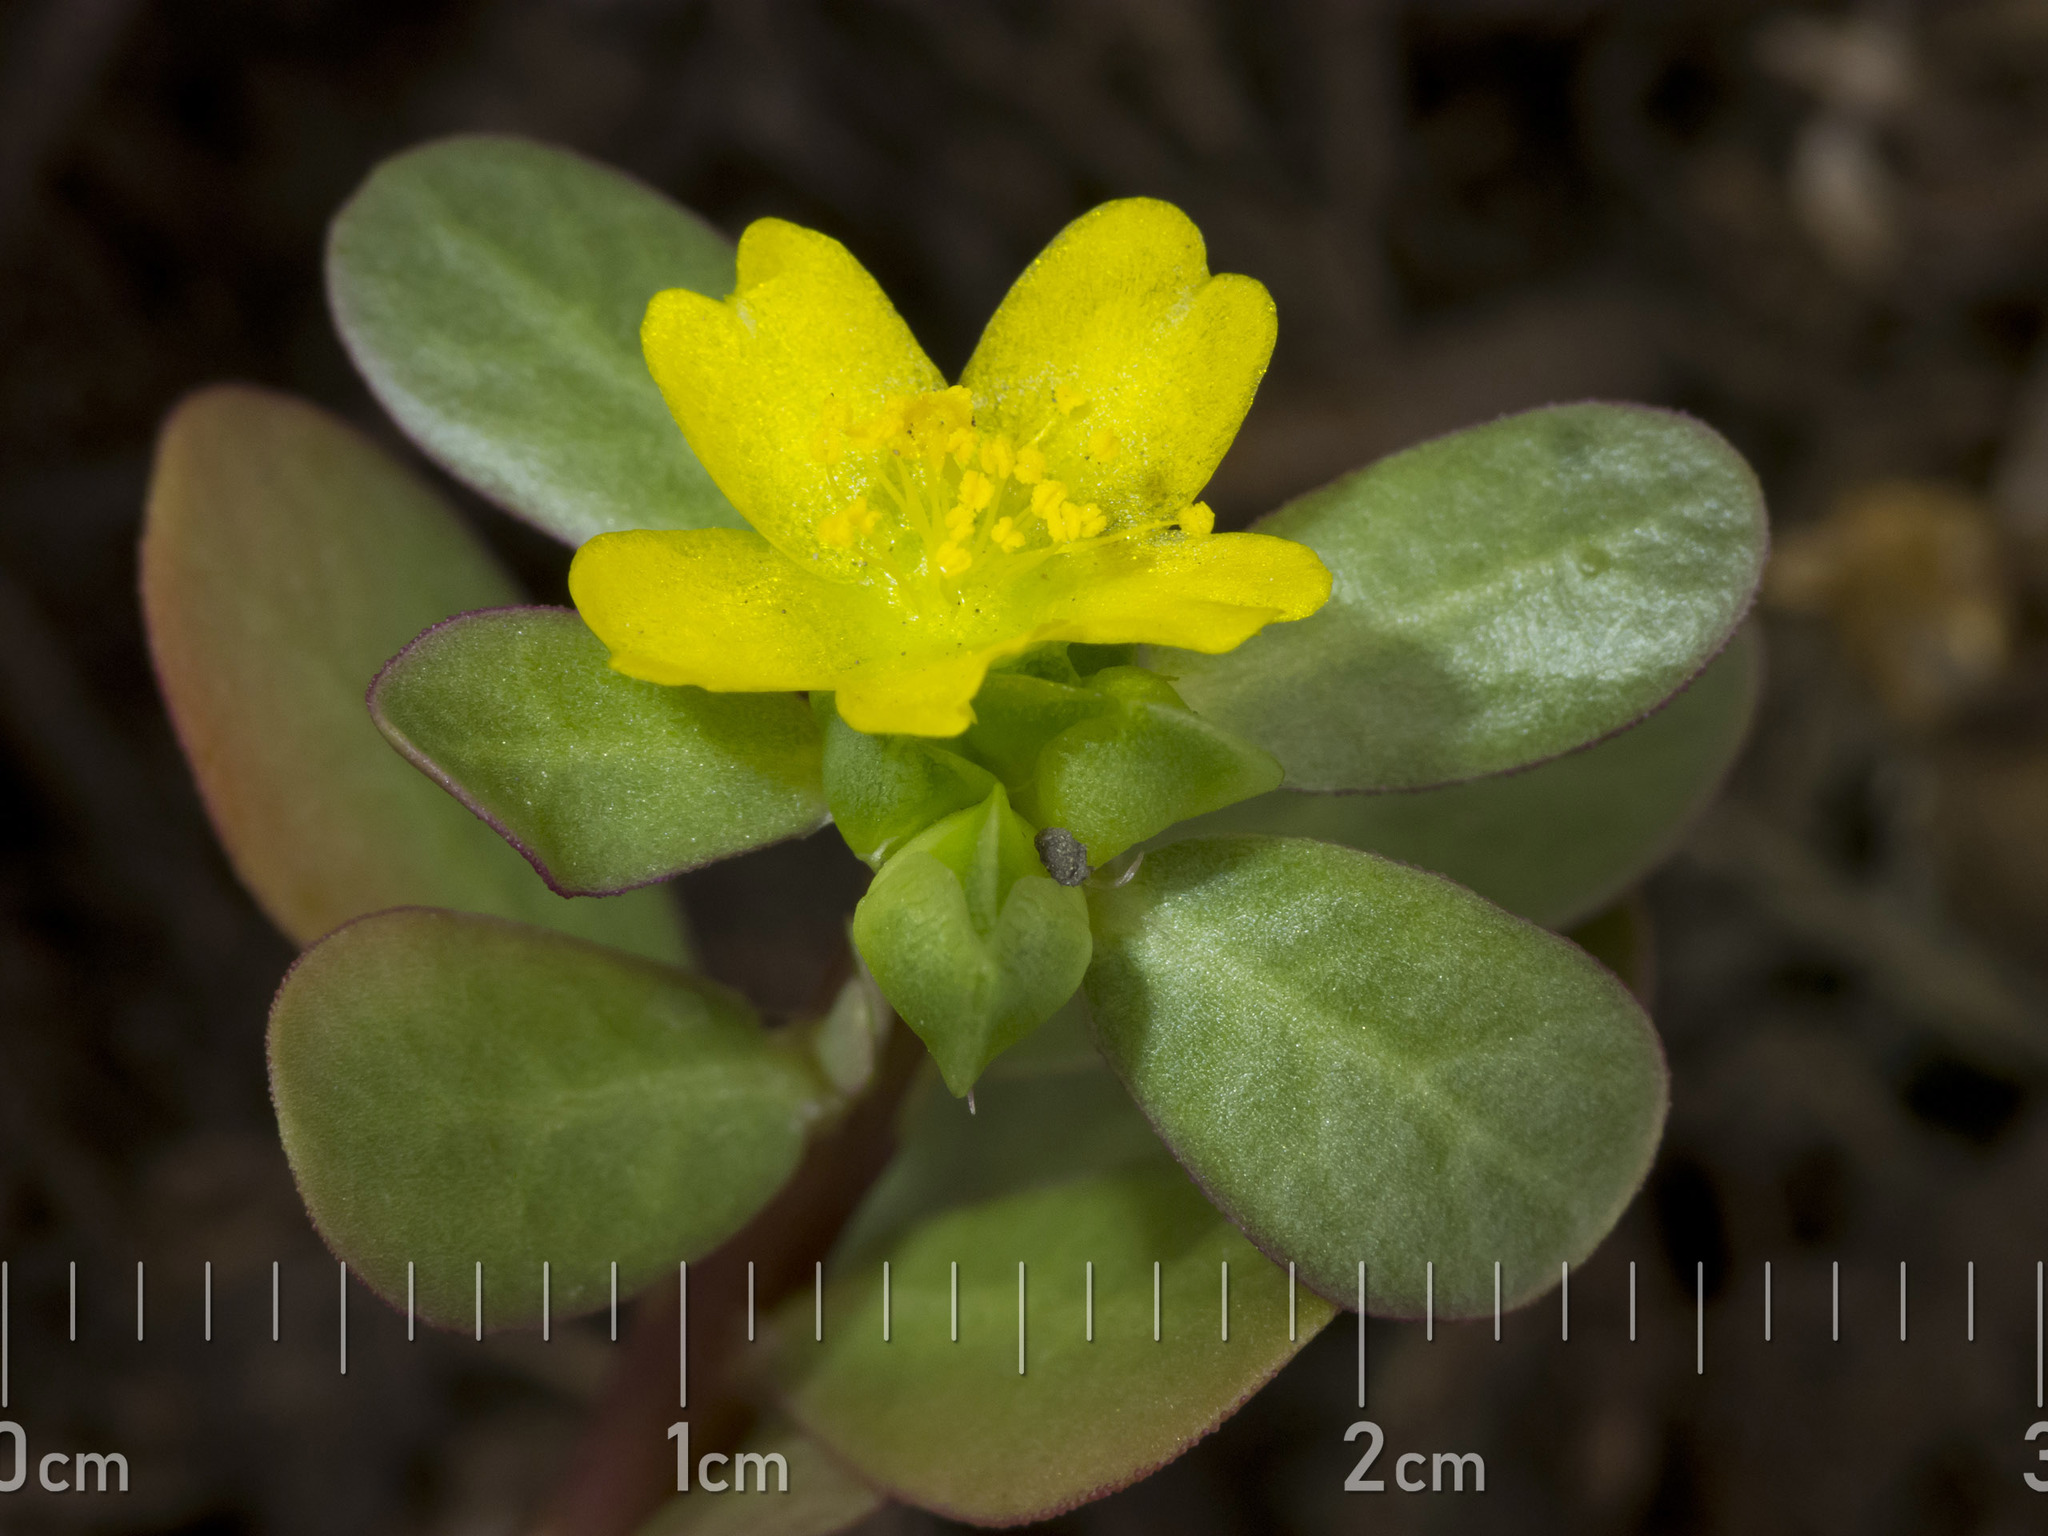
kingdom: Plantae
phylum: Tracheophyta
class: Magnoliopsida
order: Caryophyllales
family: Portulacaceae
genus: Portulaca
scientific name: Portulaca oleracea
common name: Common purslane
